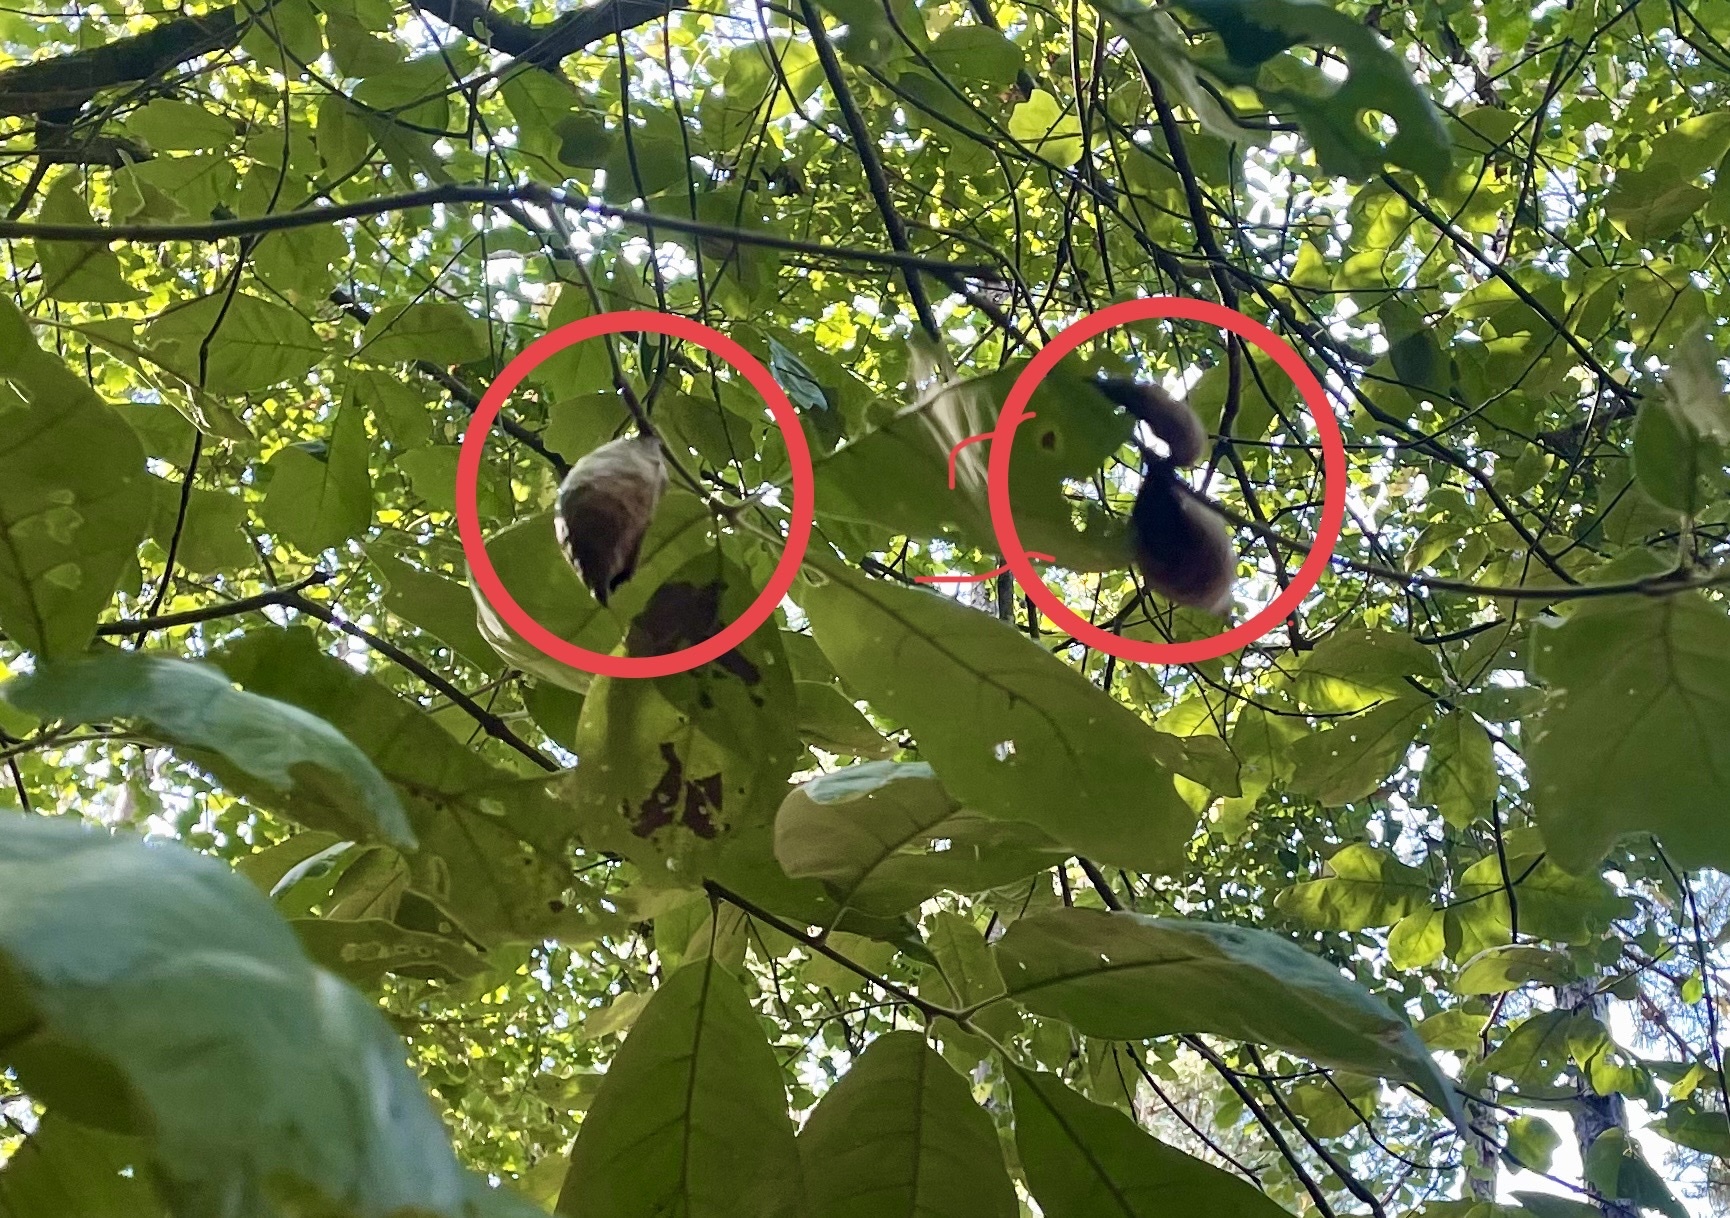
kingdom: Animalia
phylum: Arthropoda
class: Insecta
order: Hymenoptera
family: Cynipidae
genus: Amphibolips
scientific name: Amphibolips
